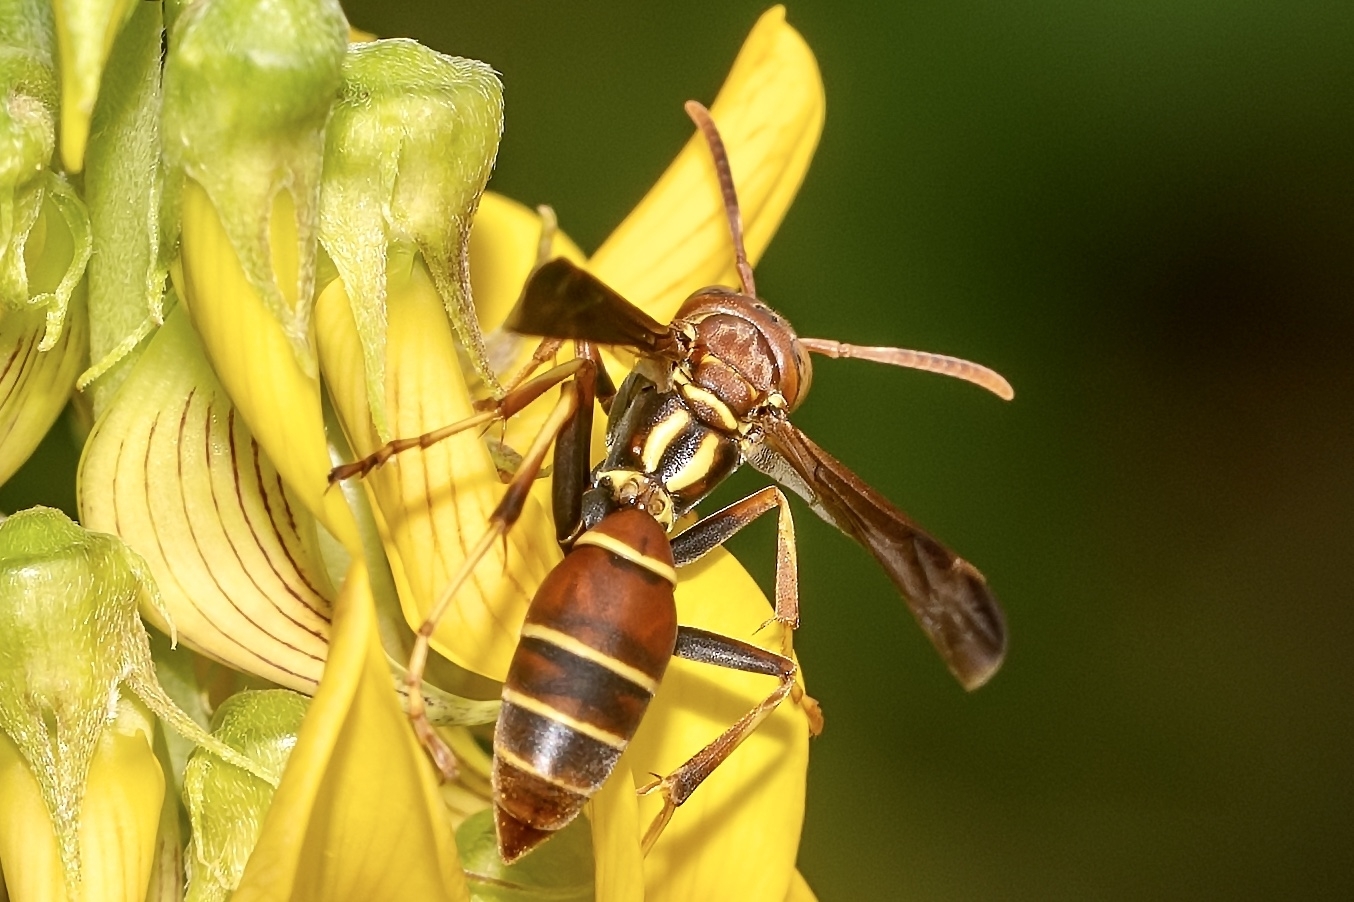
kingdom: Animalia
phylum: Arthropoda
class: Insecta
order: Hymenoptera
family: Eumenidae
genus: Polistes
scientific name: Polistes bellicosus
